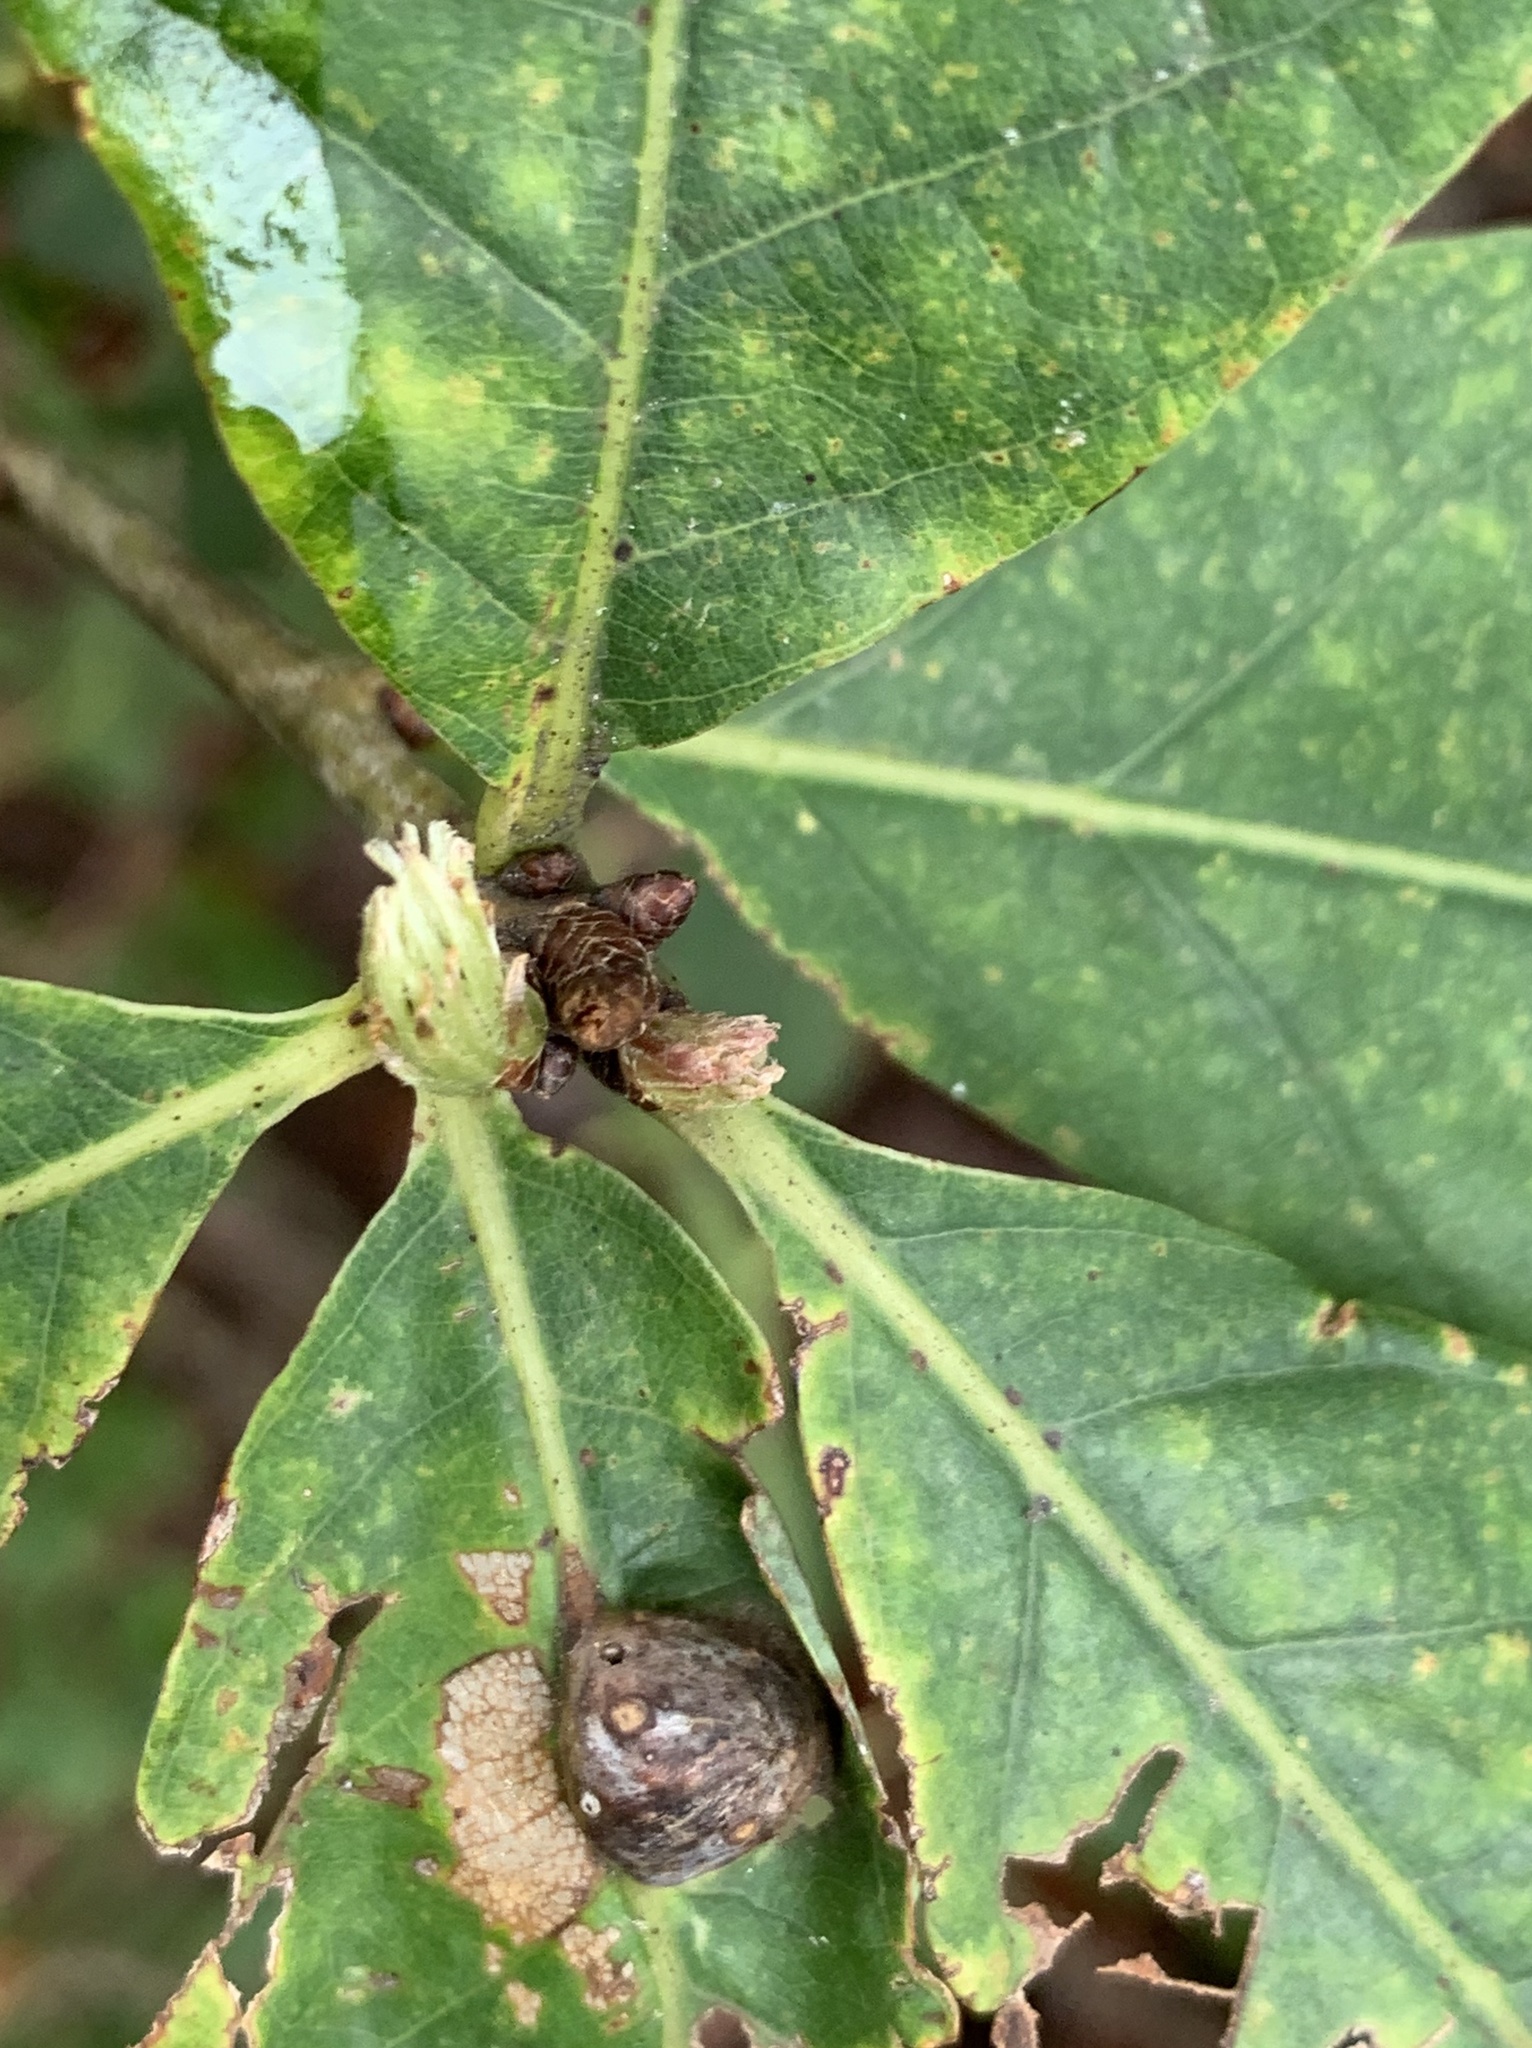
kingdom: Animalia
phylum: Arthropoda
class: Insecta
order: Hymenoptera
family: Cynipidae
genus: Andricus
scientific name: Andricus
